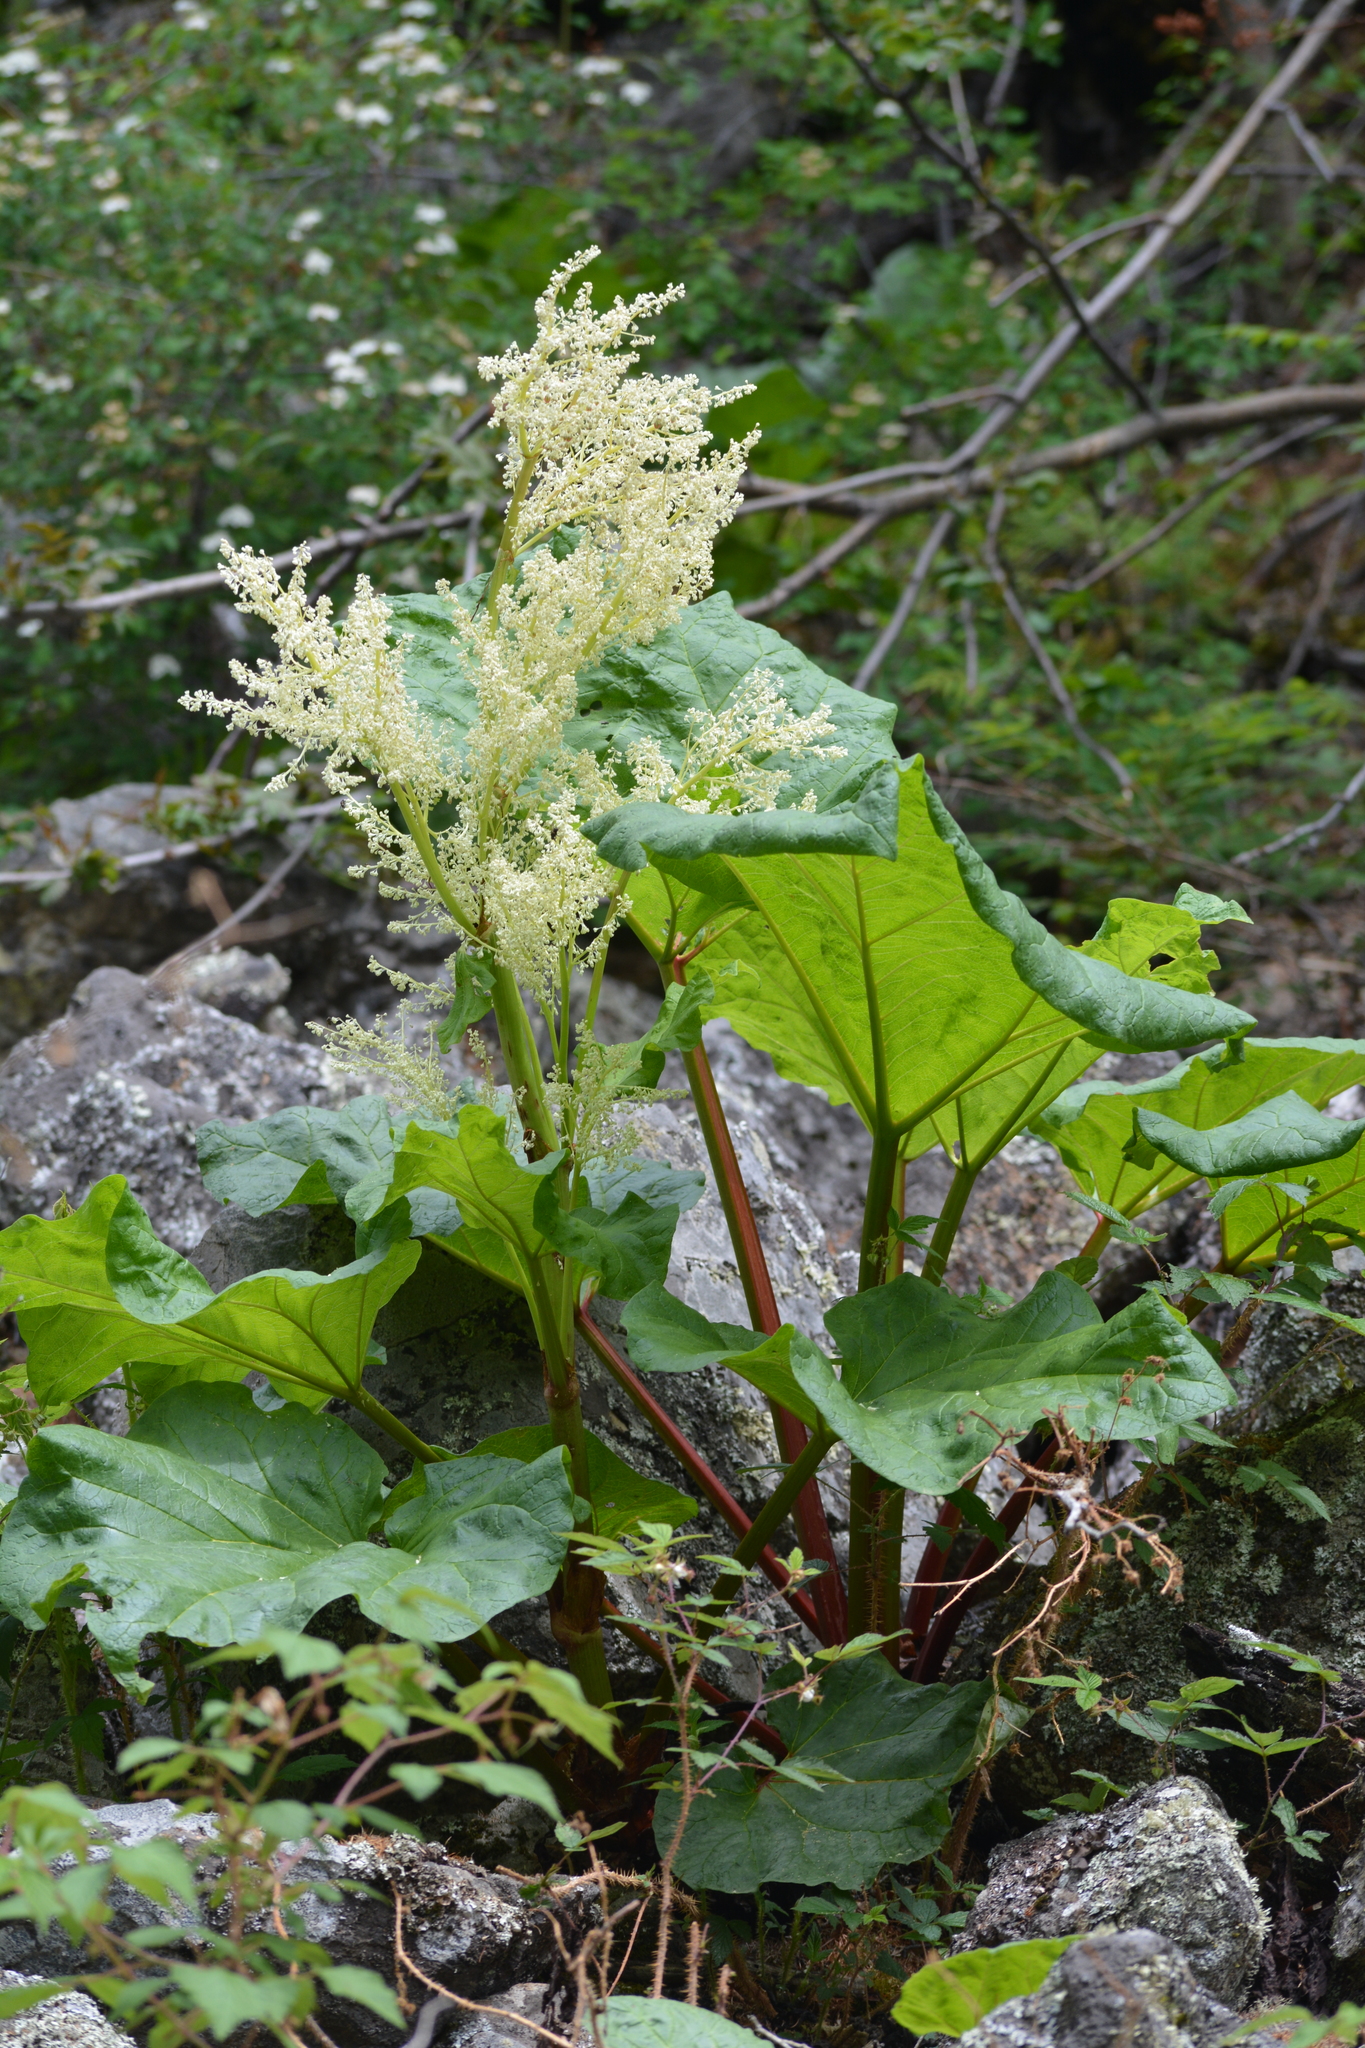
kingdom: Plantae
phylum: Tracheophyta
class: Magnoliopsida
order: Caryophyllales
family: Polygonaceae
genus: Rheum
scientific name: Rheum rhabarbarum
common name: Garden rhubarb
